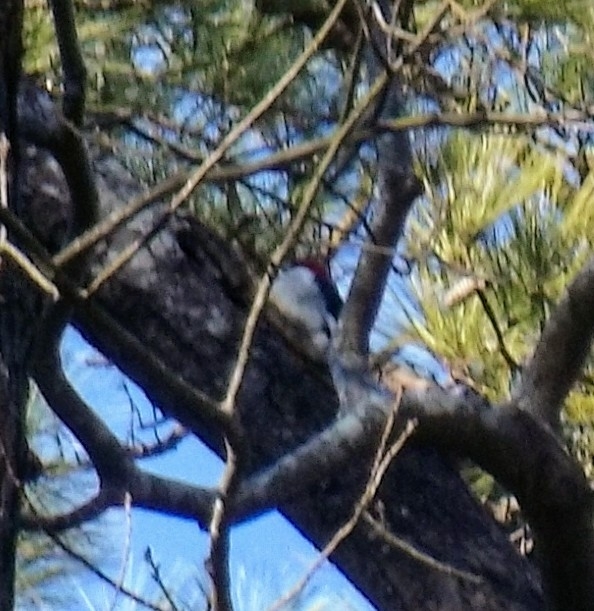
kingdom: Animalia
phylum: Chordata
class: Aves
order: Piciformes
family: Picidae
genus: Melanerpes
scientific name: Melanerpes erythrocephalus
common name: Red-headed woodpecker
